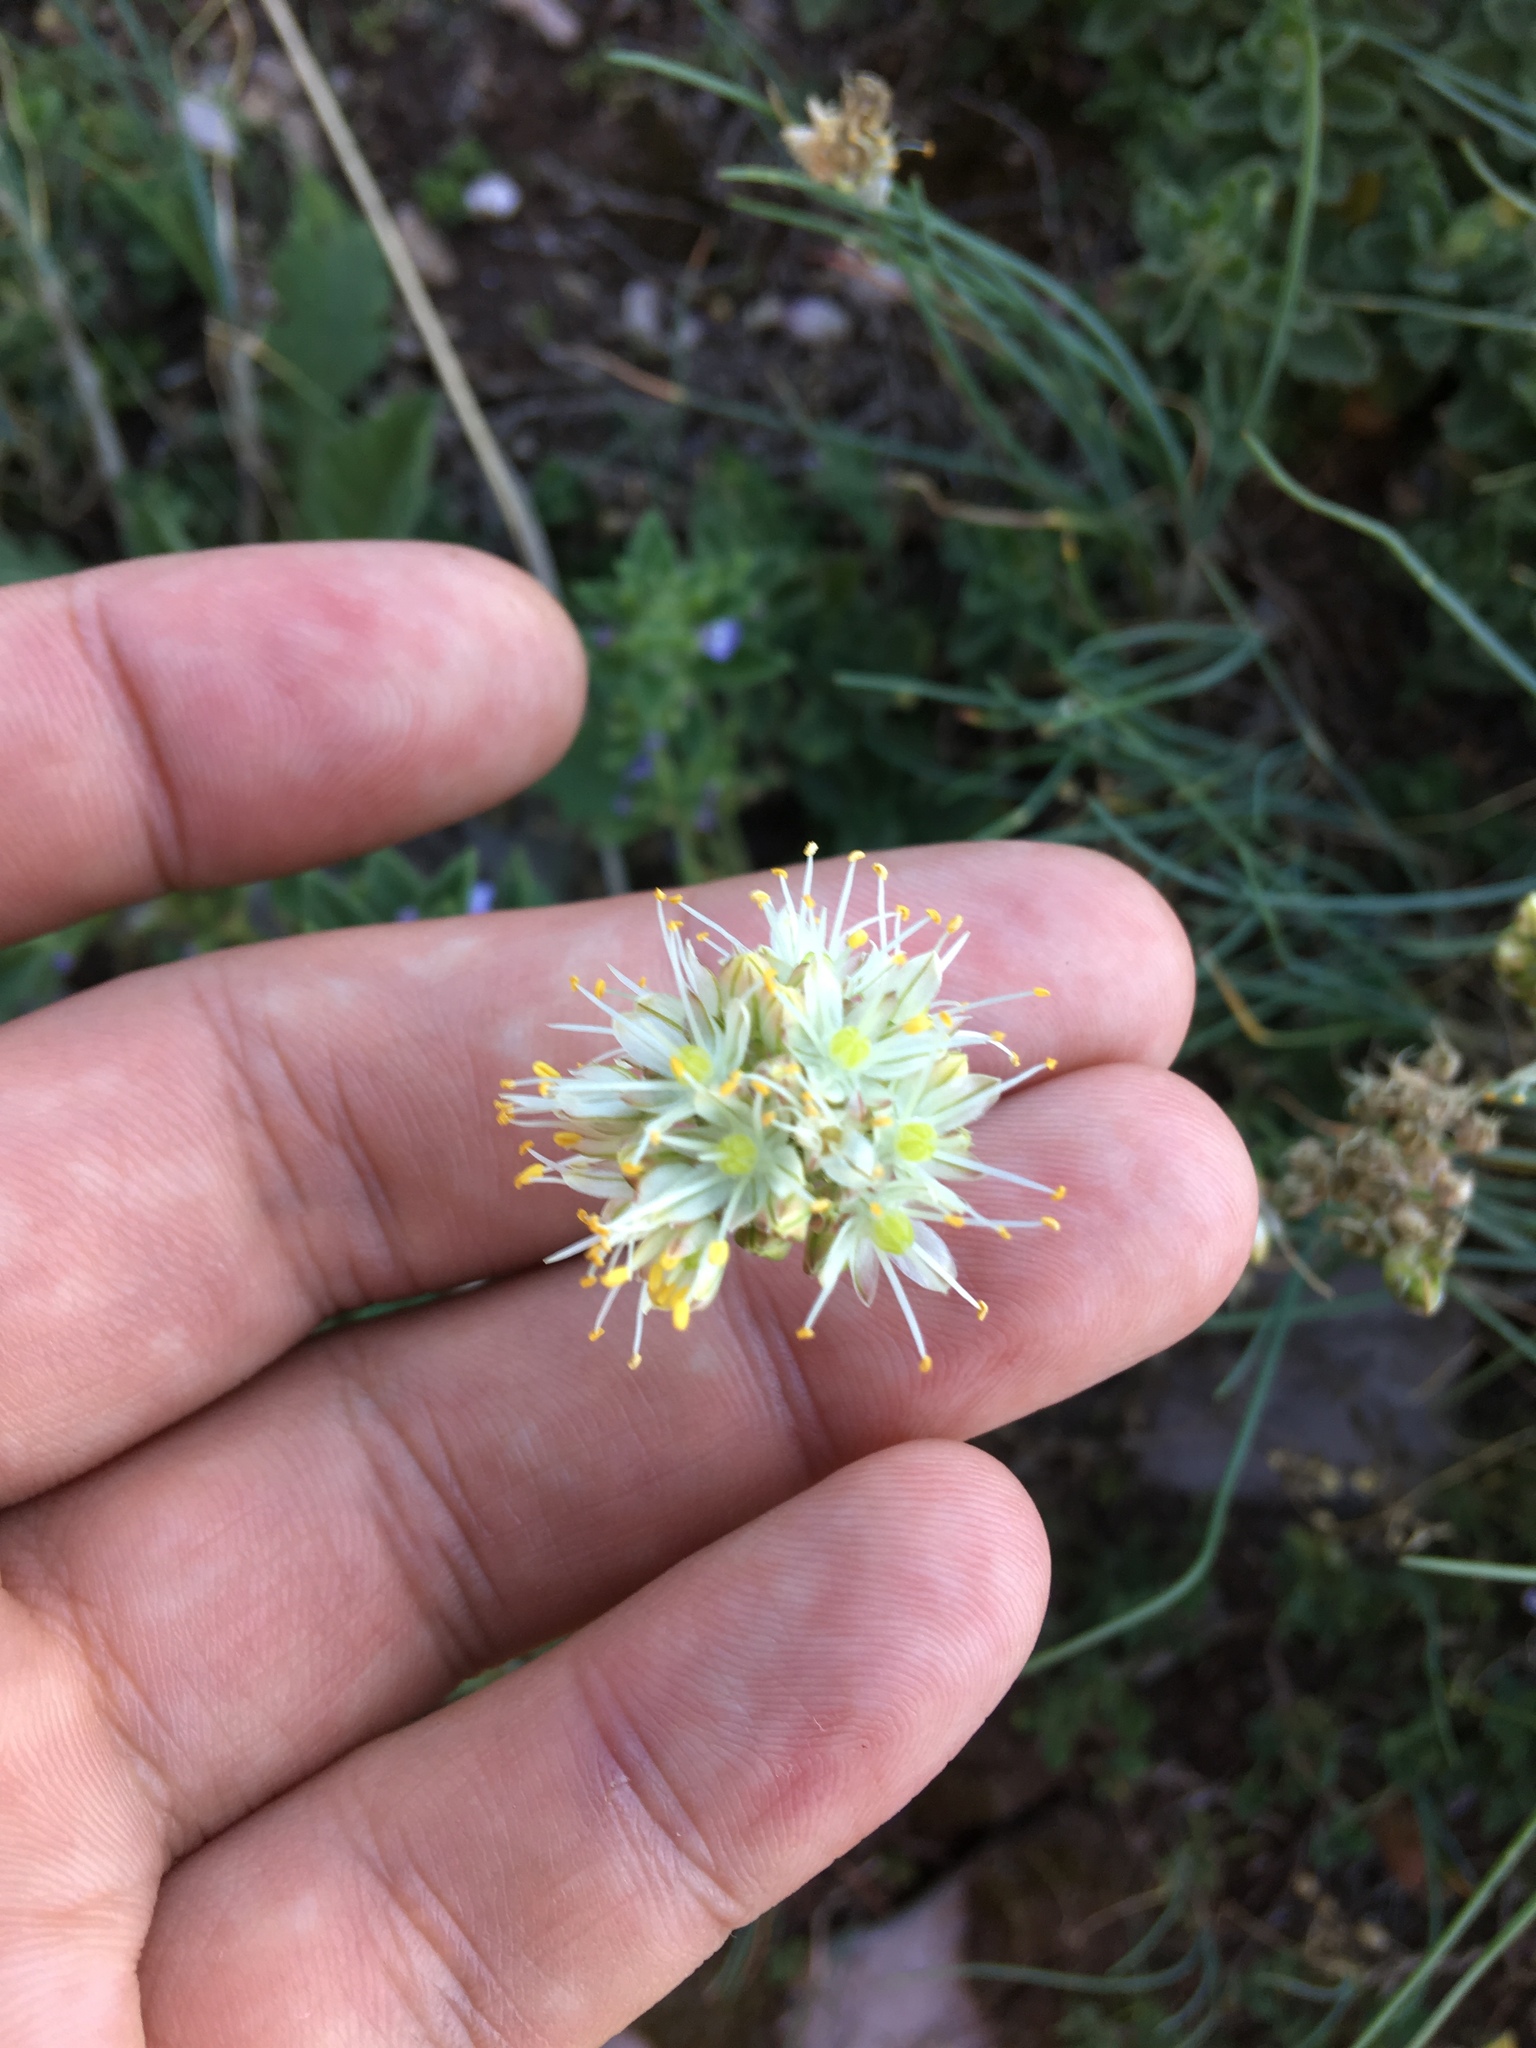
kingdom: Plantae
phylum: Tracheophyta
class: Liliopsida
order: Asparagales
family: Amaryllidaceae
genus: Allium
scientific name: Allium marschallianum
